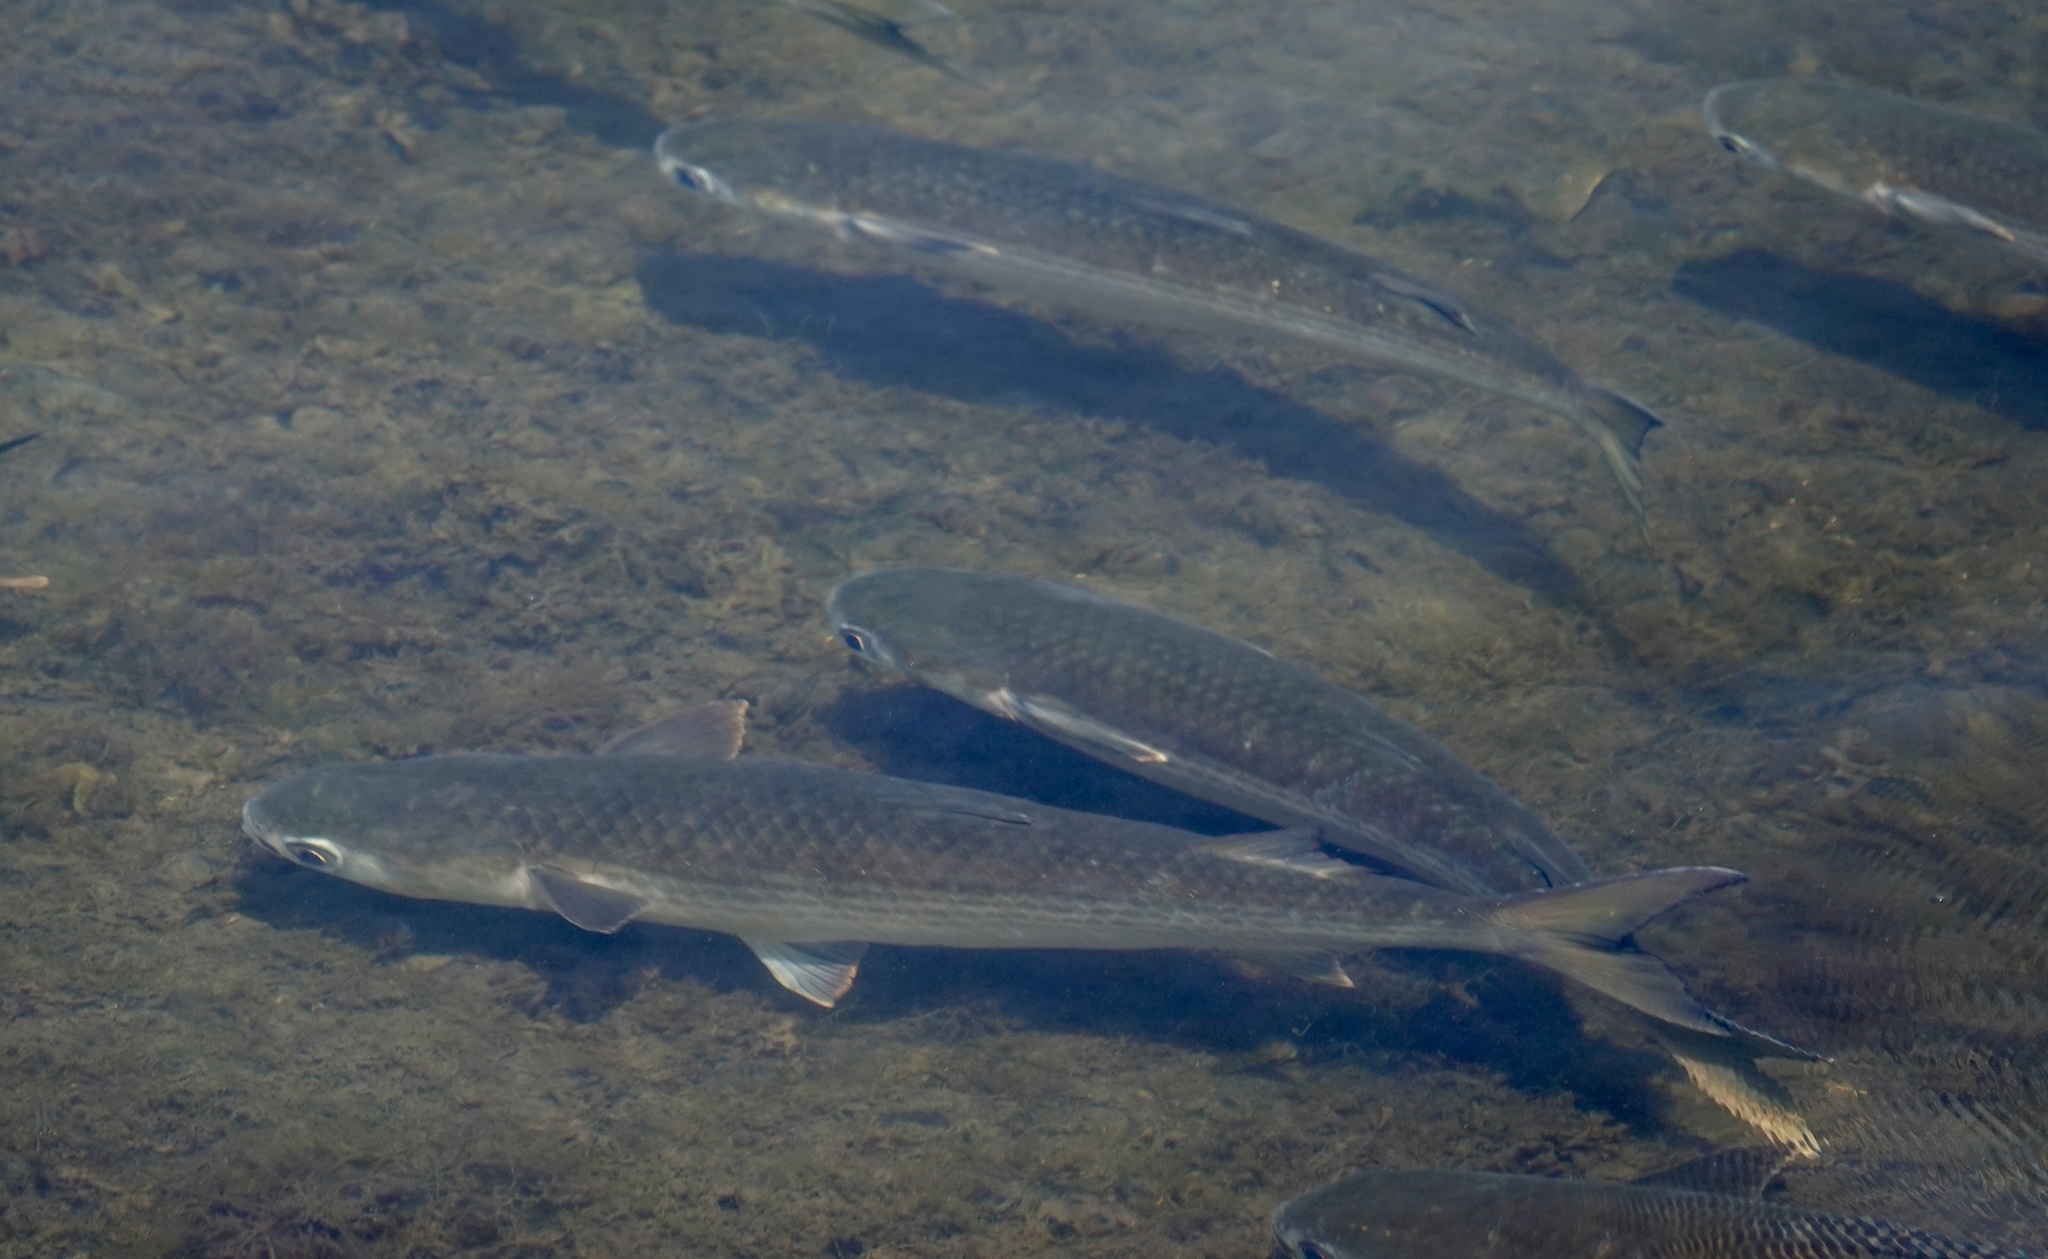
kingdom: Animalia
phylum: Chordata
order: Mugiliformes
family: Mugilidae
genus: Mugil
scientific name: Mugil cephalus
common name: Grey mullet
